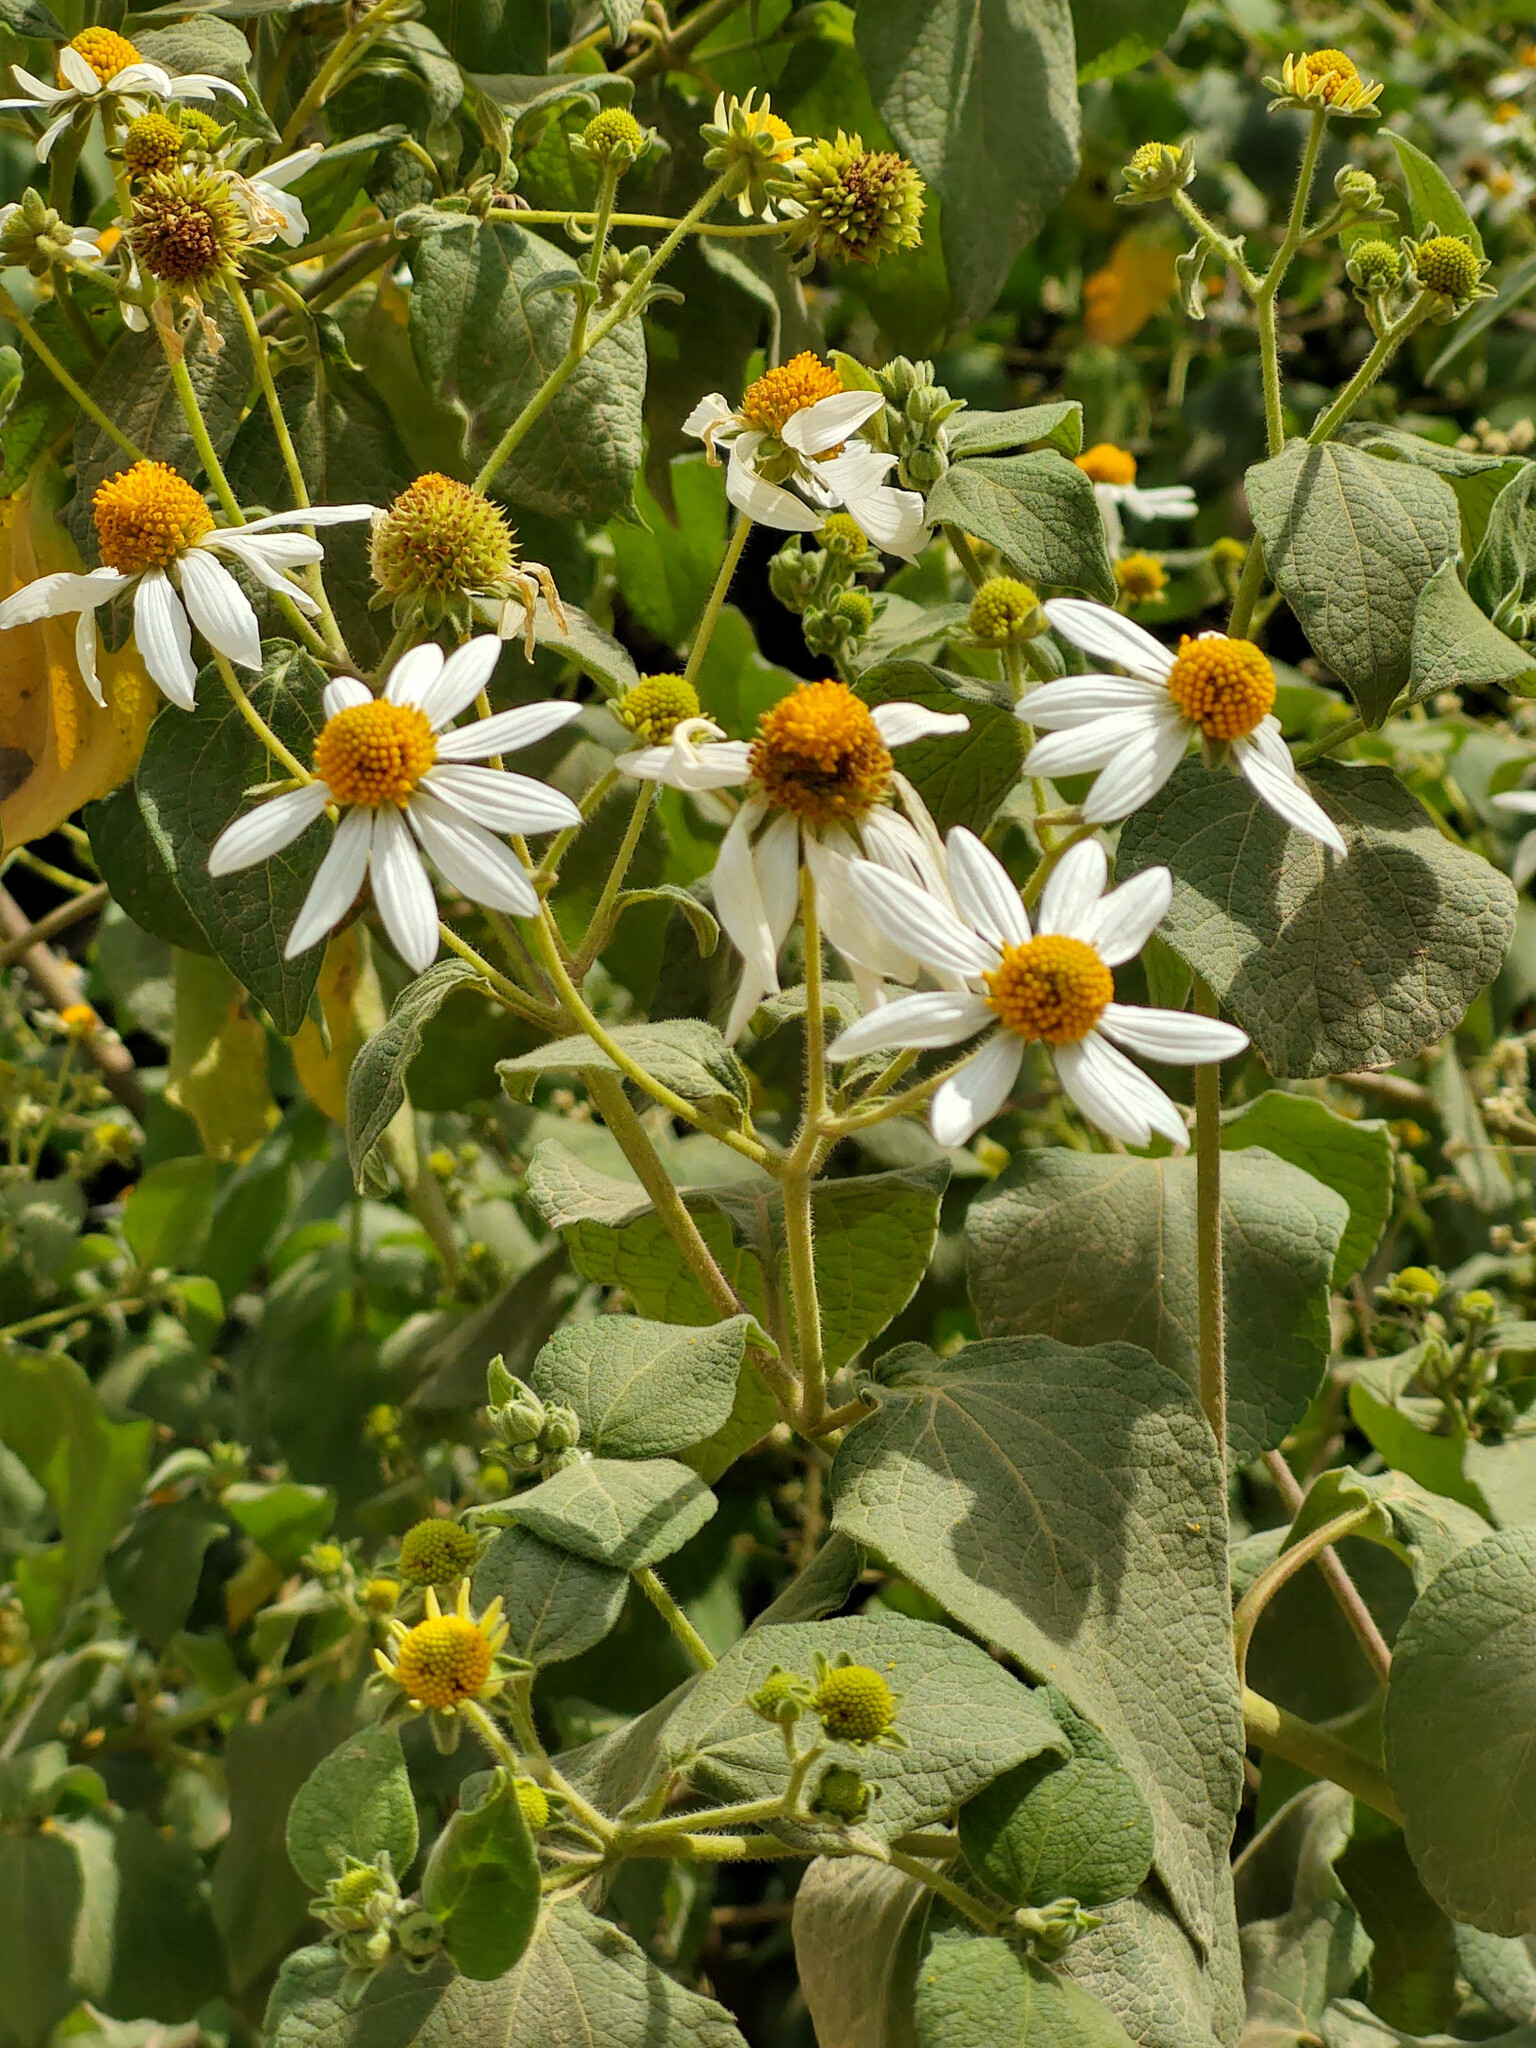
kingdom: Plantae
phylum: Tracheophyta
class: Magnoliopsida
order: Asterales
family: Asteraceae
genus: Montanoa
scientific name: Montanoa ovalifolia
